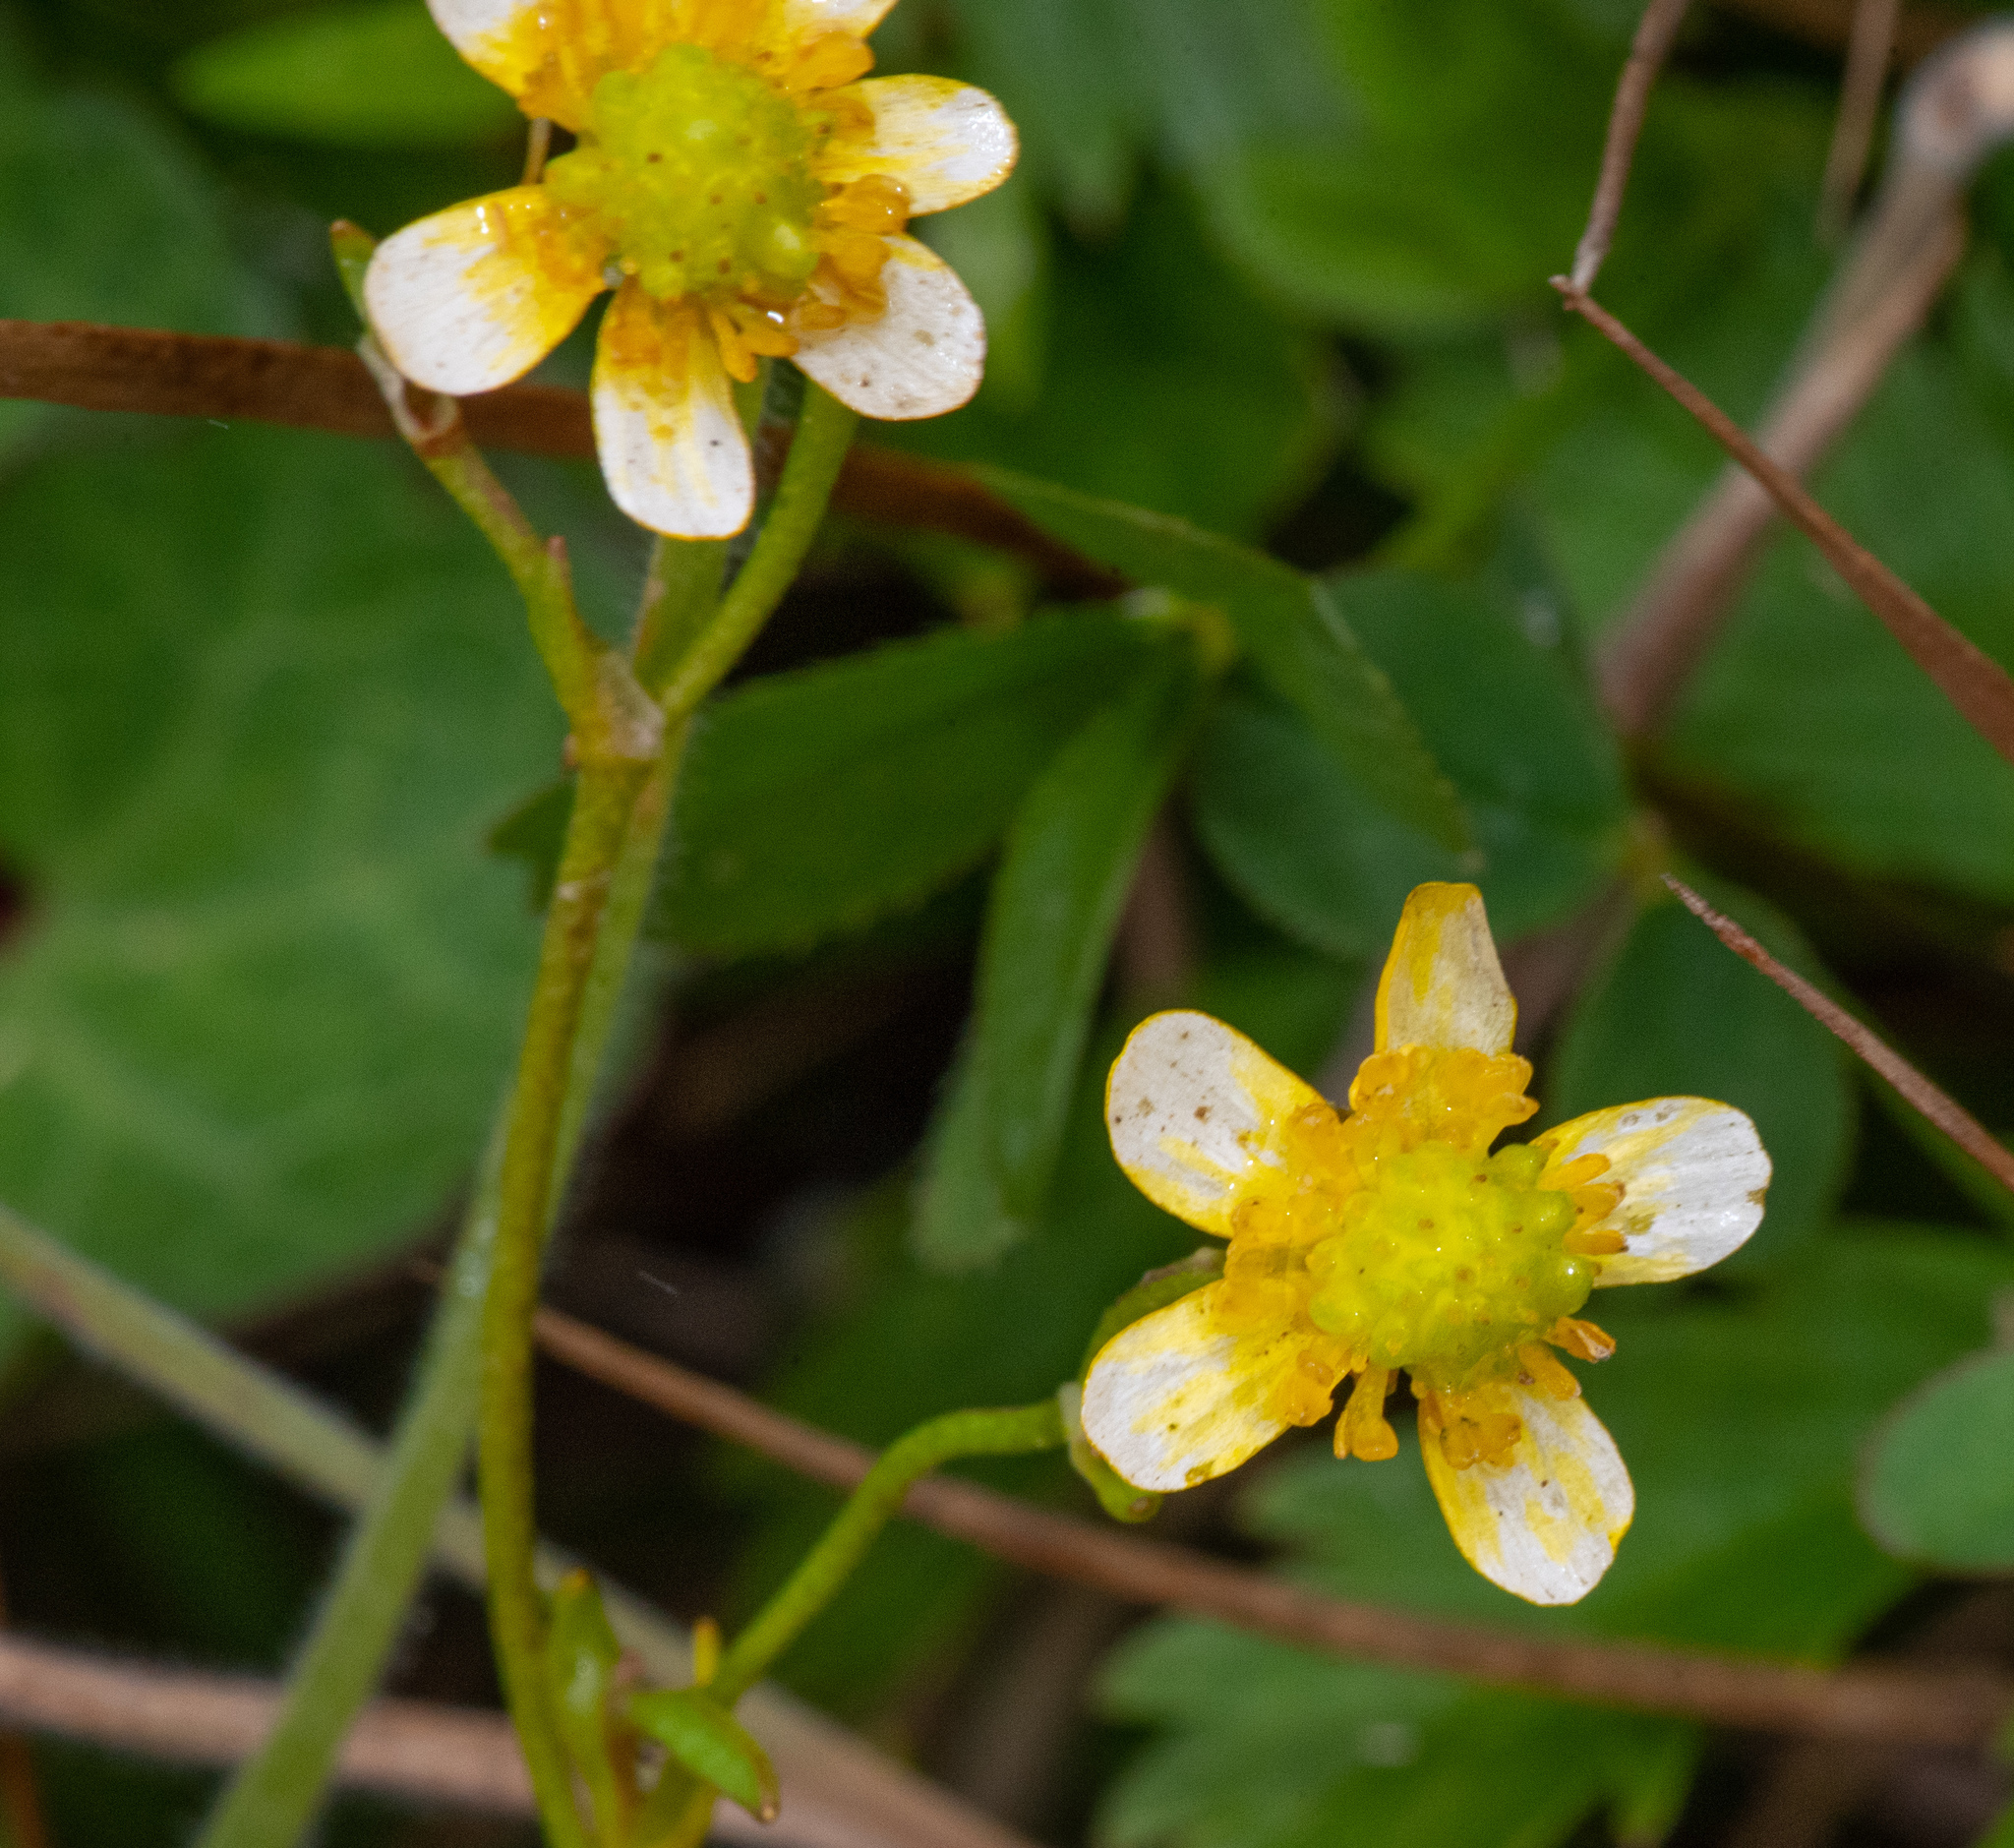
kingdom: Plantae
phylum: Tracheophyta
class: Magnoliopsida
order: Ranunculales
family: Ranunculaceae
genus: Ranunculus
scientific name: Ranunculus flammula
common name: Lesser spearwort
